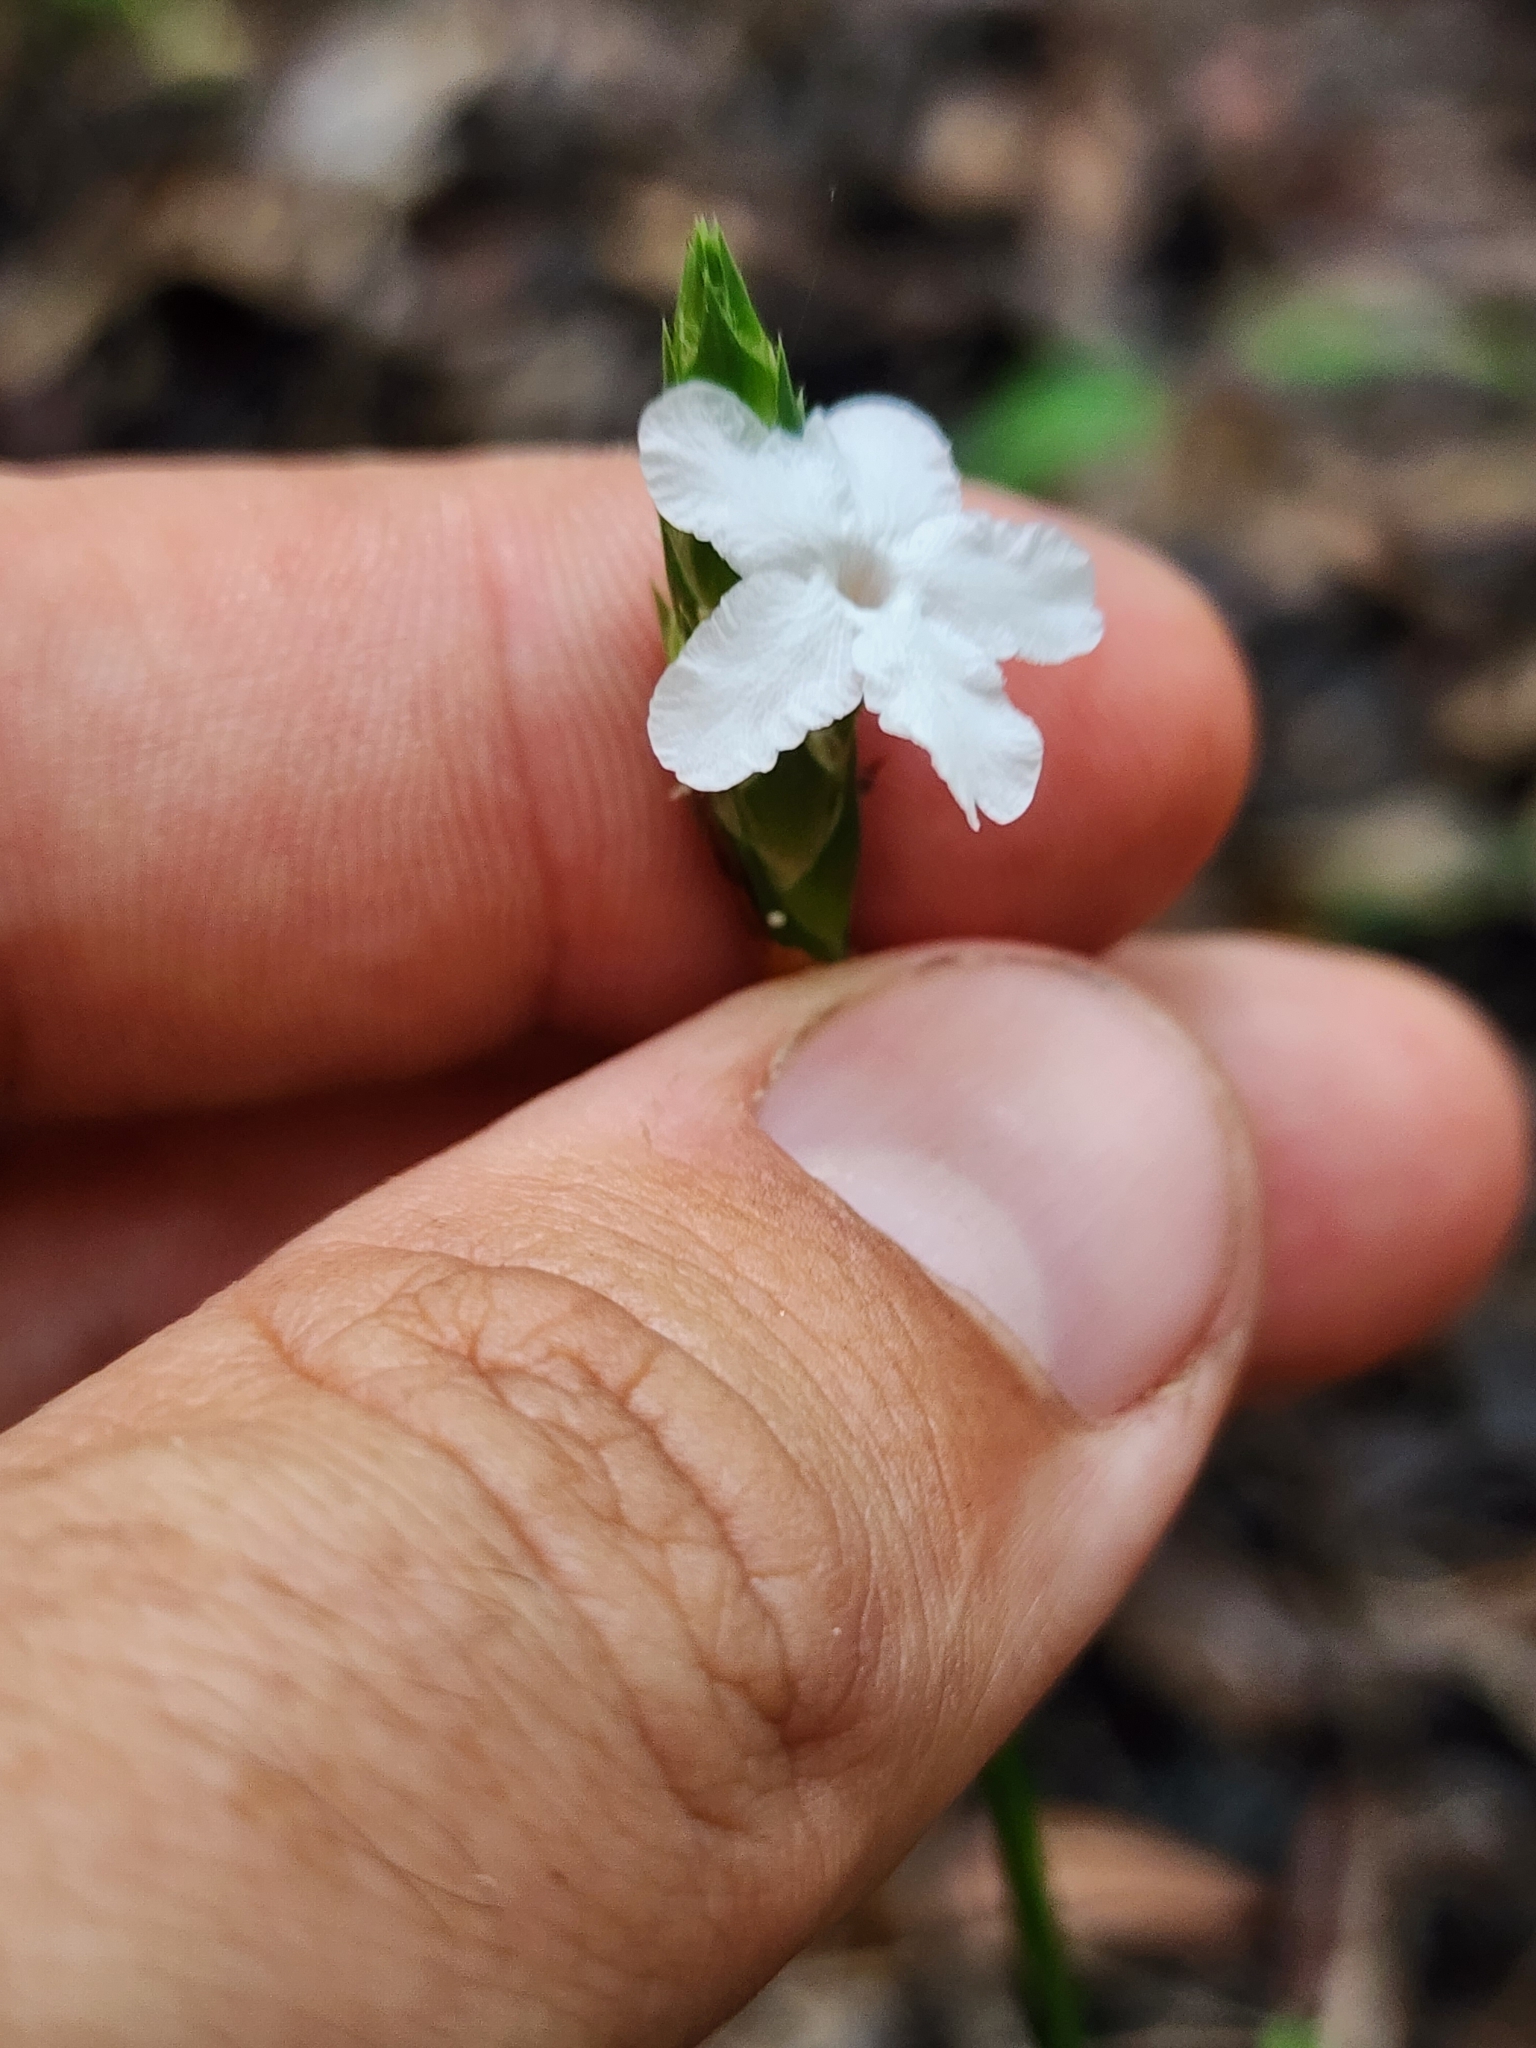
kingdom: Plantae
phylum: Tracheophyta
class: Magnoliopsida
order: Lamiales
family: Acanthaceae
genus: Elytraria
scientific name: Elytraria caroliniensis
